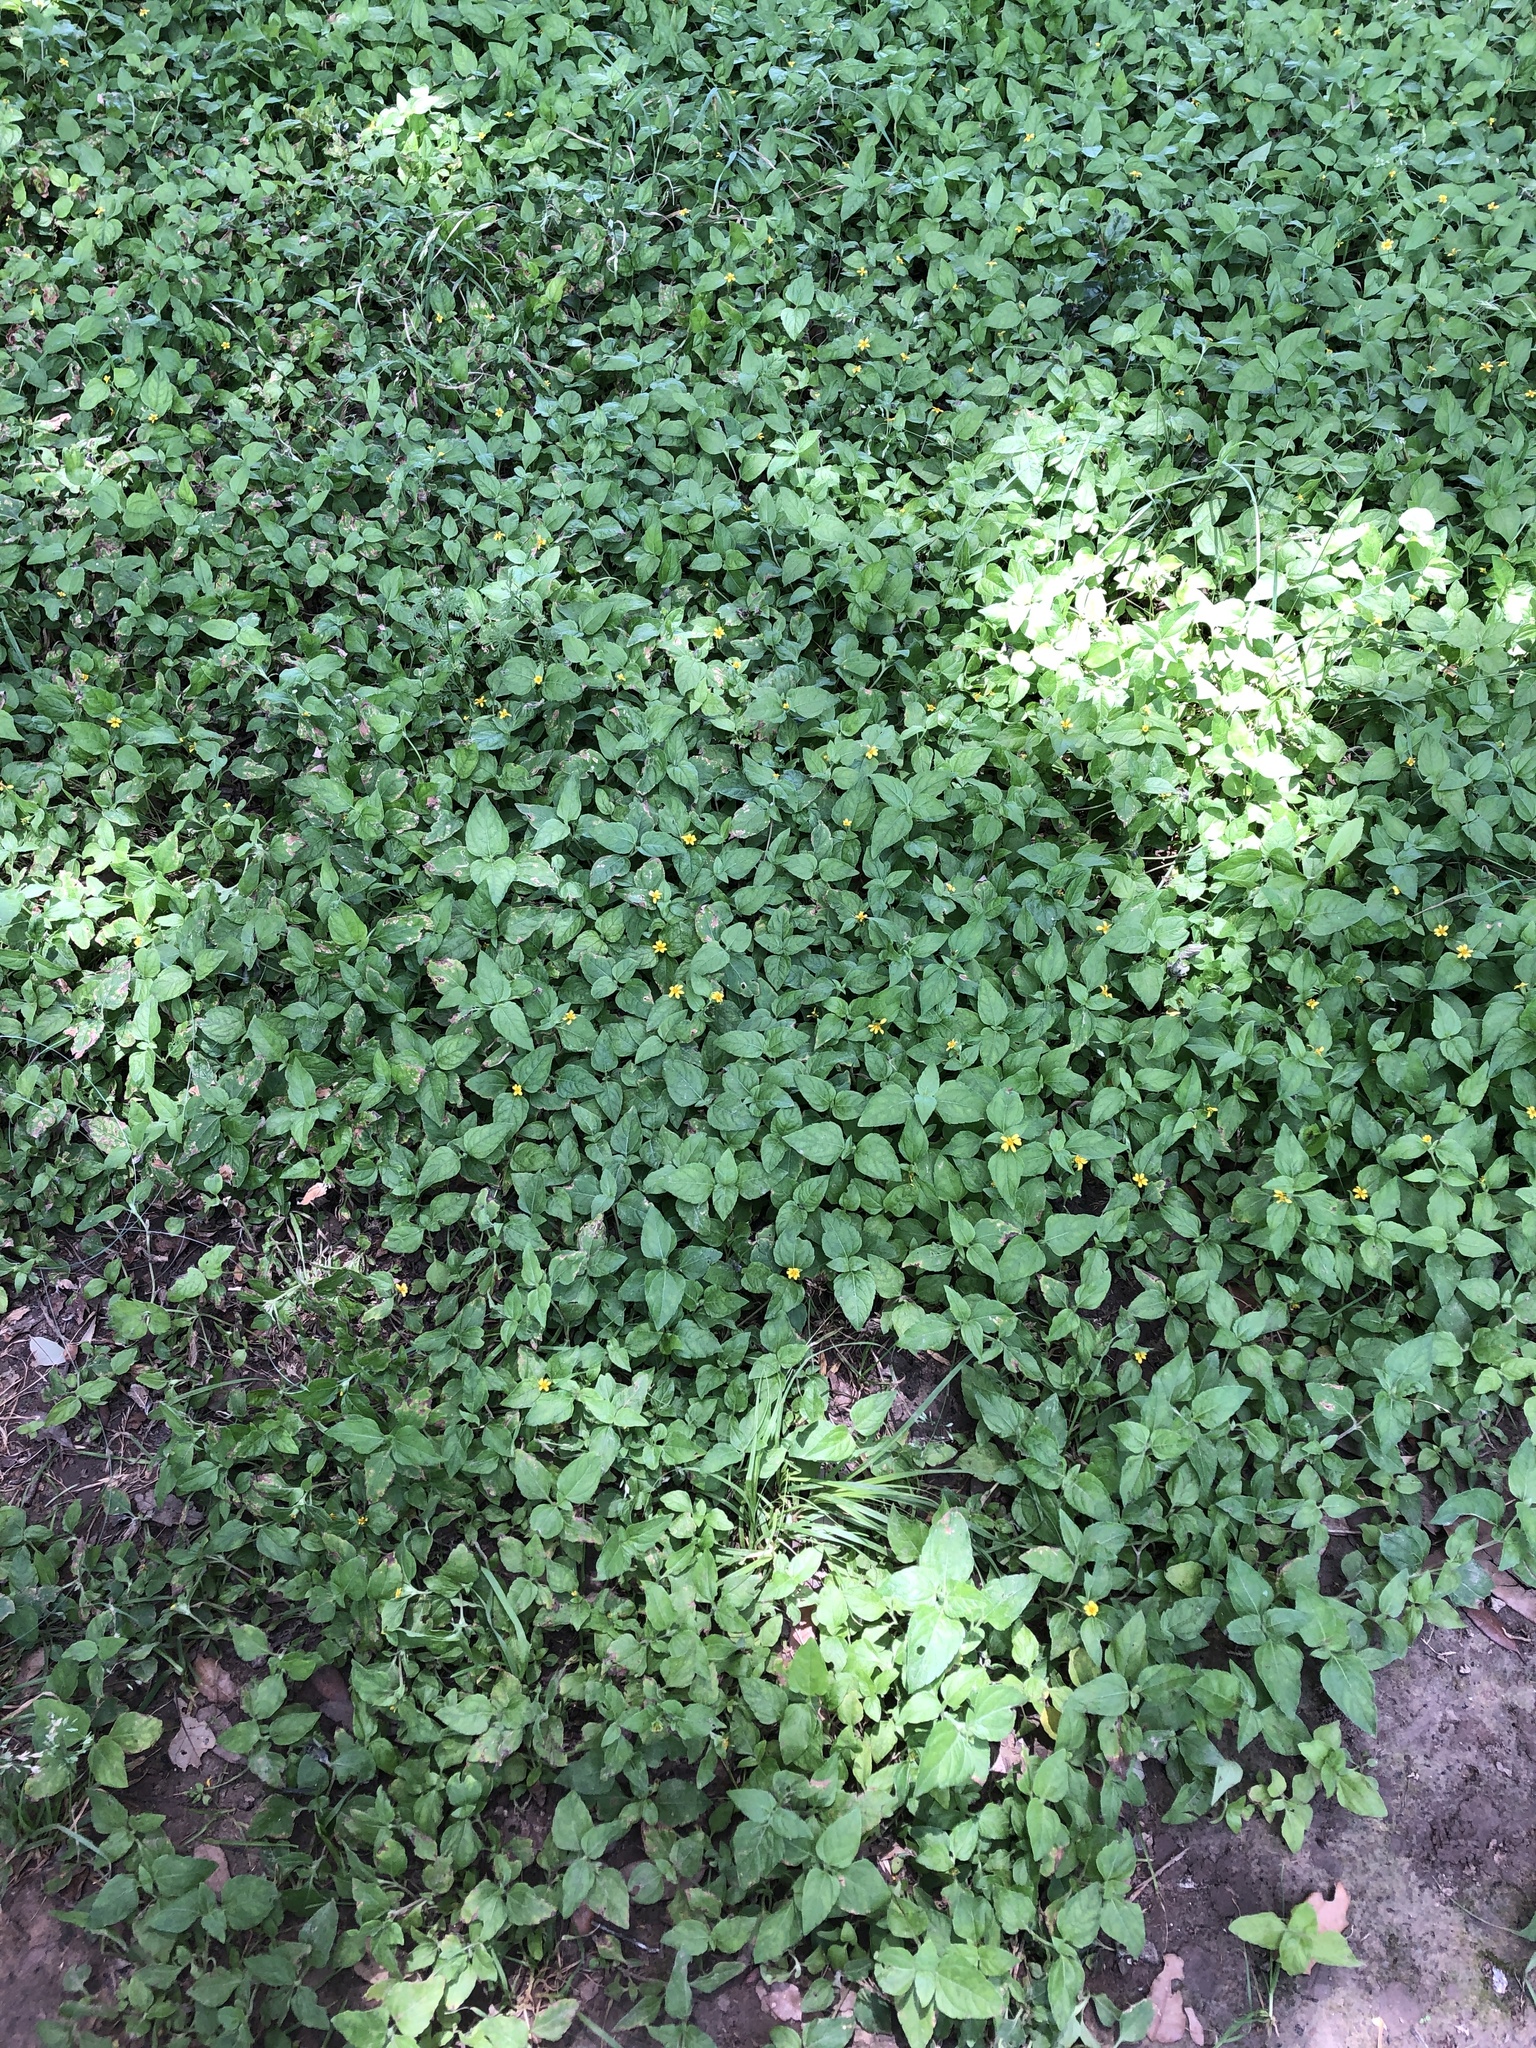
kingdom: Plantae
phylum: Tracheophyta
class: Magnoliopsida
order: Asterales
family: Asteraceae
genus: Calyptocarpus
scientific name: Calyptocarpus vialis
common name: Straggler daisy
